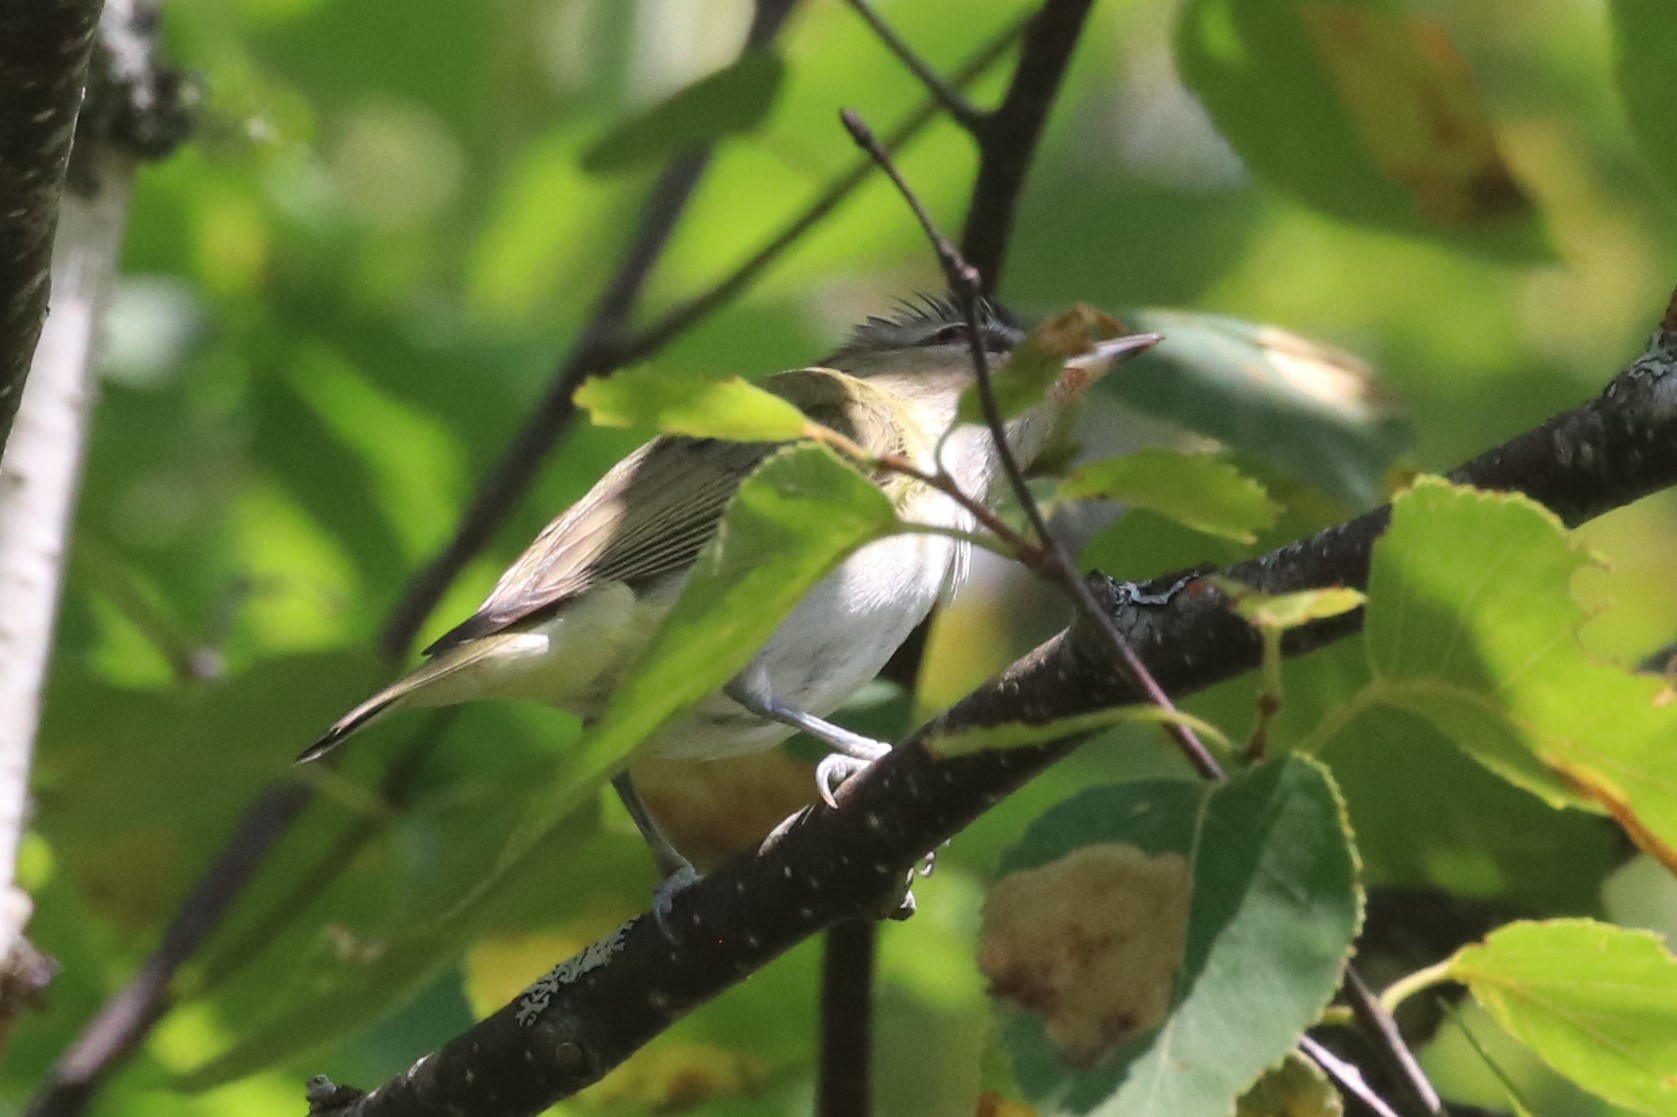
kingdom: Animalia
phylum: Chordata
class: Aves
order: Passeriformes
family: Vireonidae
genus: Vireo
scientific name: Vireo olivaceus
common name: Red-eyed vireo
